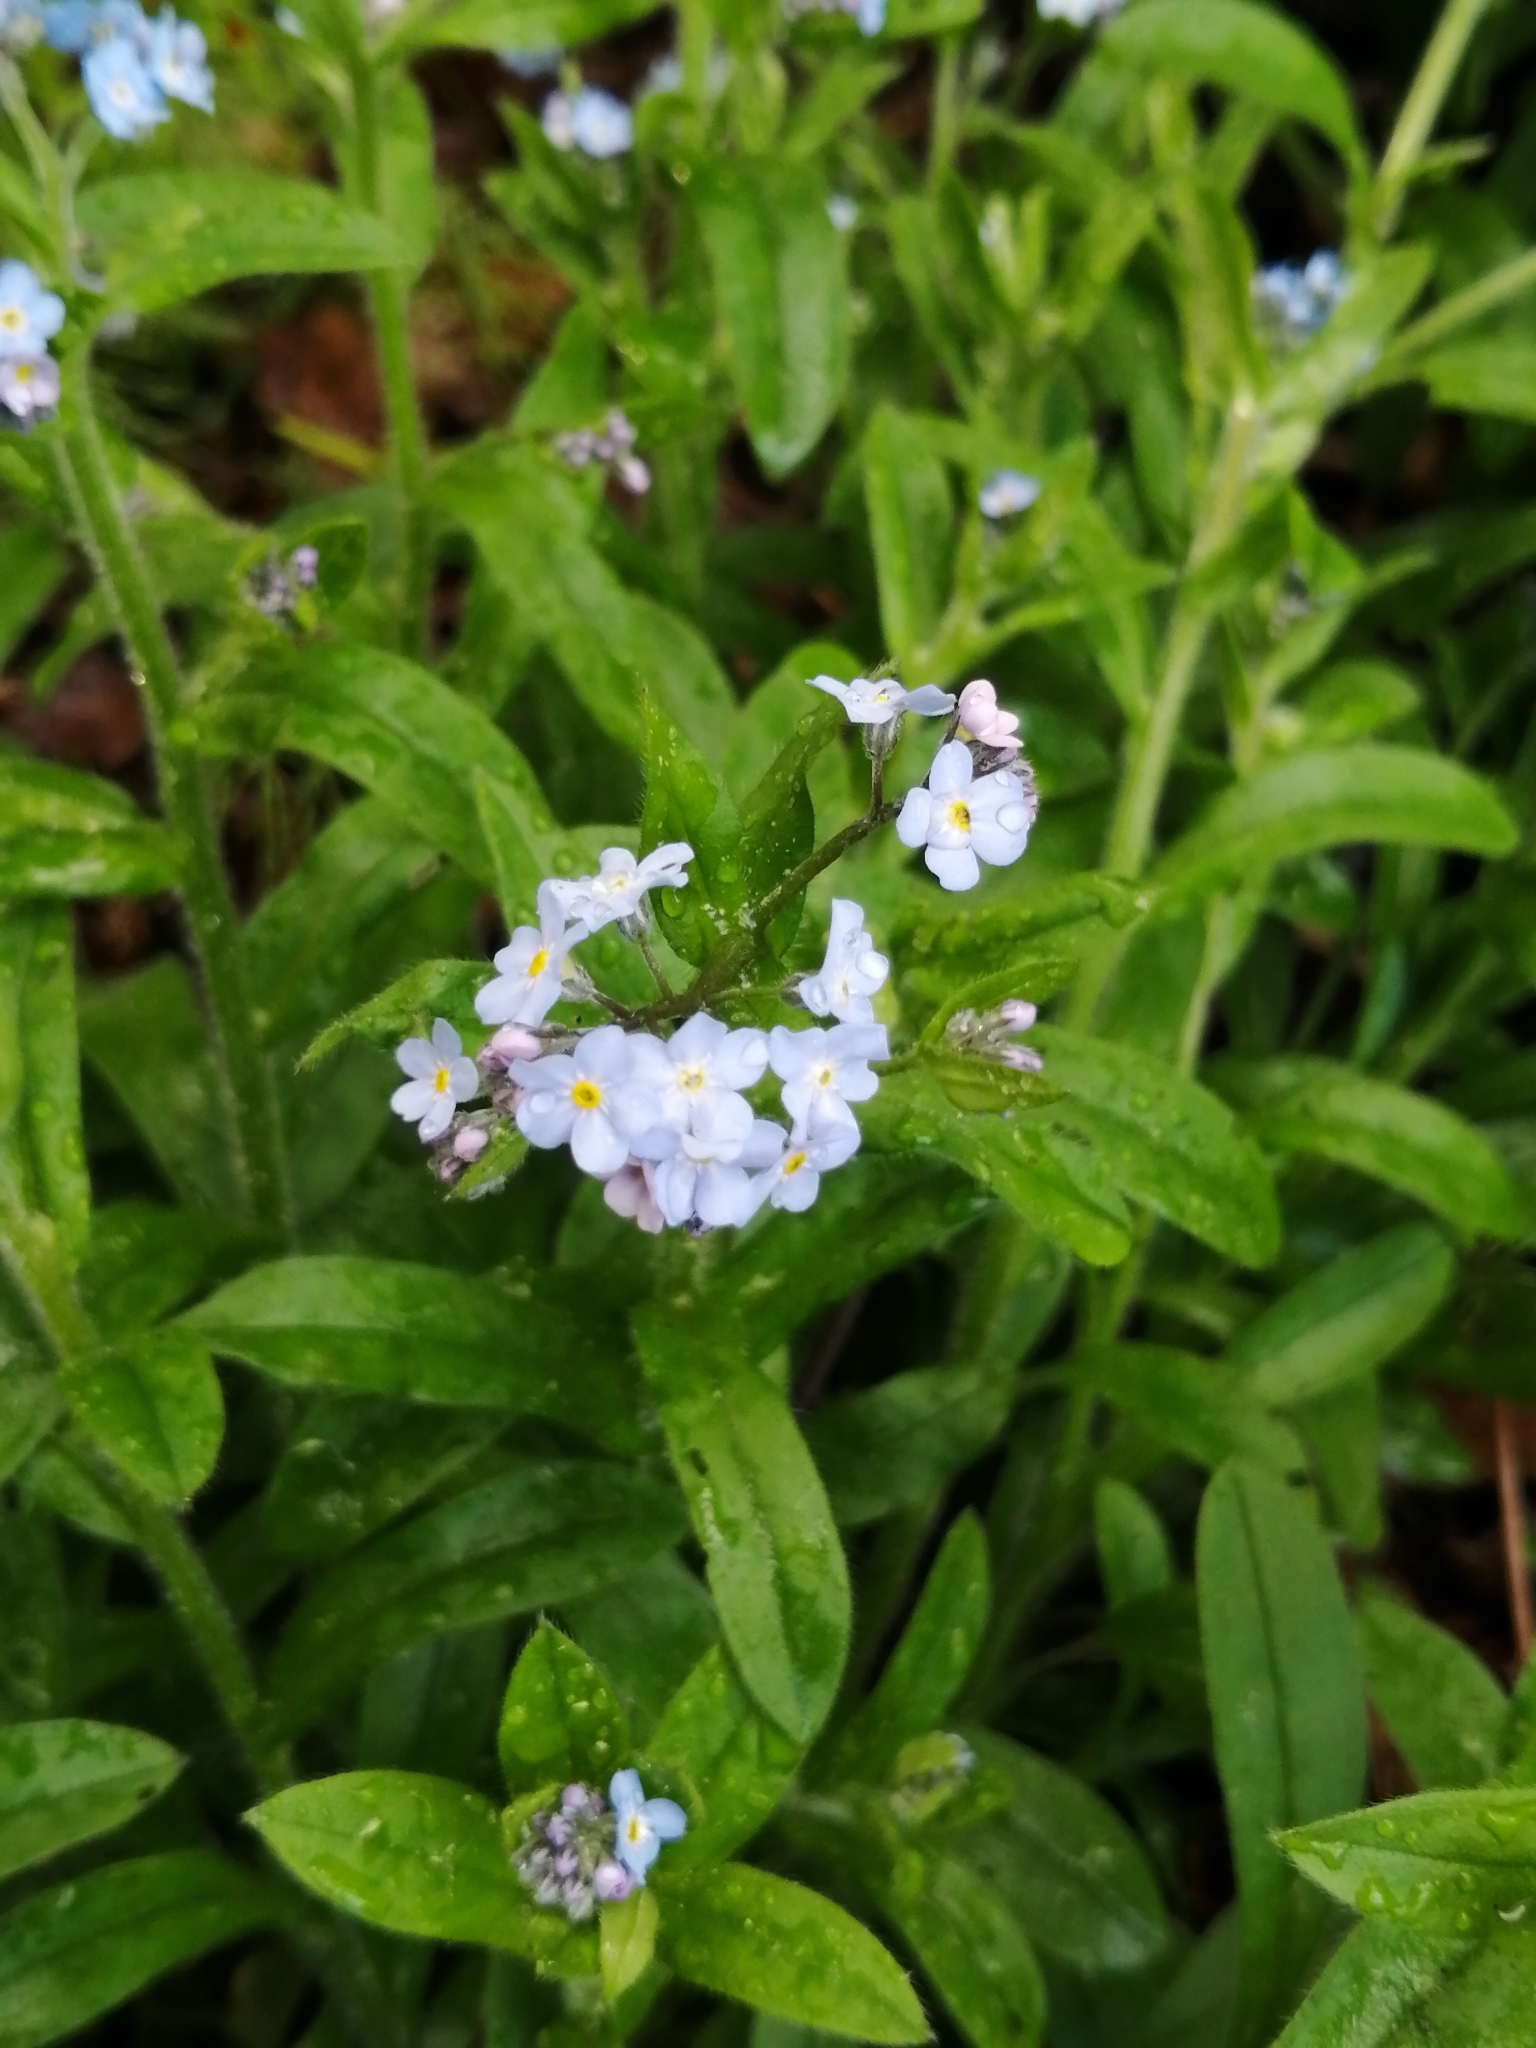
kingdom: Plantae
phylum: Tracheophyta
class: Magnoliopsida
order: Boraginales
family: Boraginaceae
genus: Myosotis
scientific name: Myosotis sylvatica
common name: Wood forget-me-not
